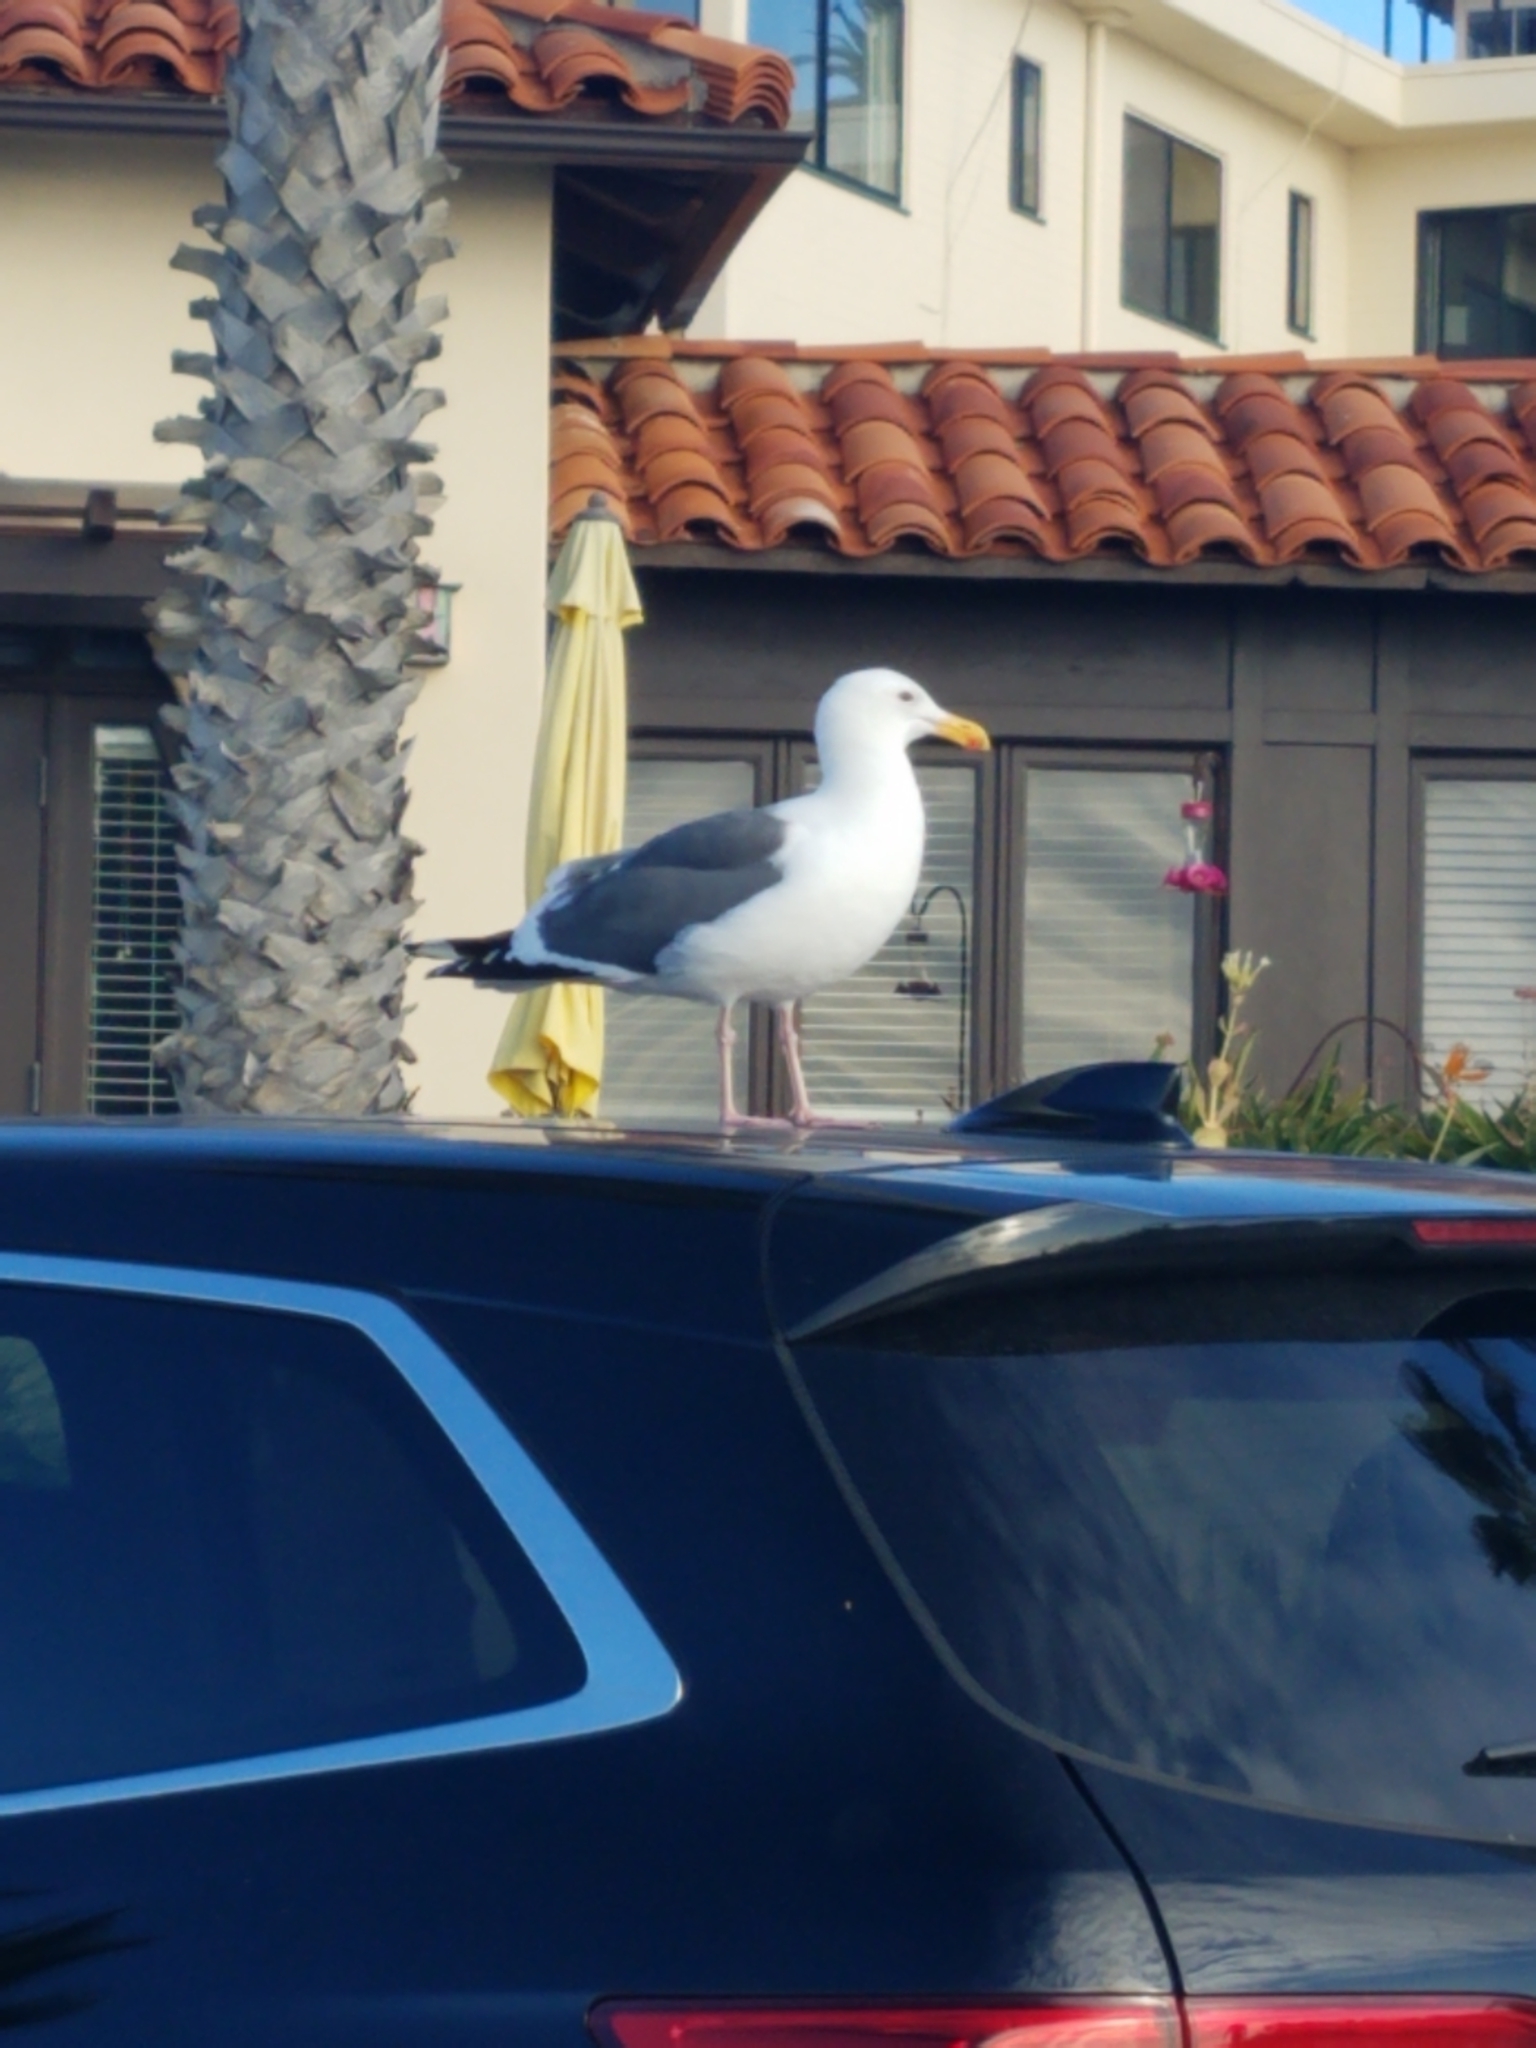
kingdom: Animalia
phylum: Chordata
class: Aves
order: Charadriiformes
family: Laridae
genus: Larus
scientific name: Larus occidentalis
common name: Western gull
